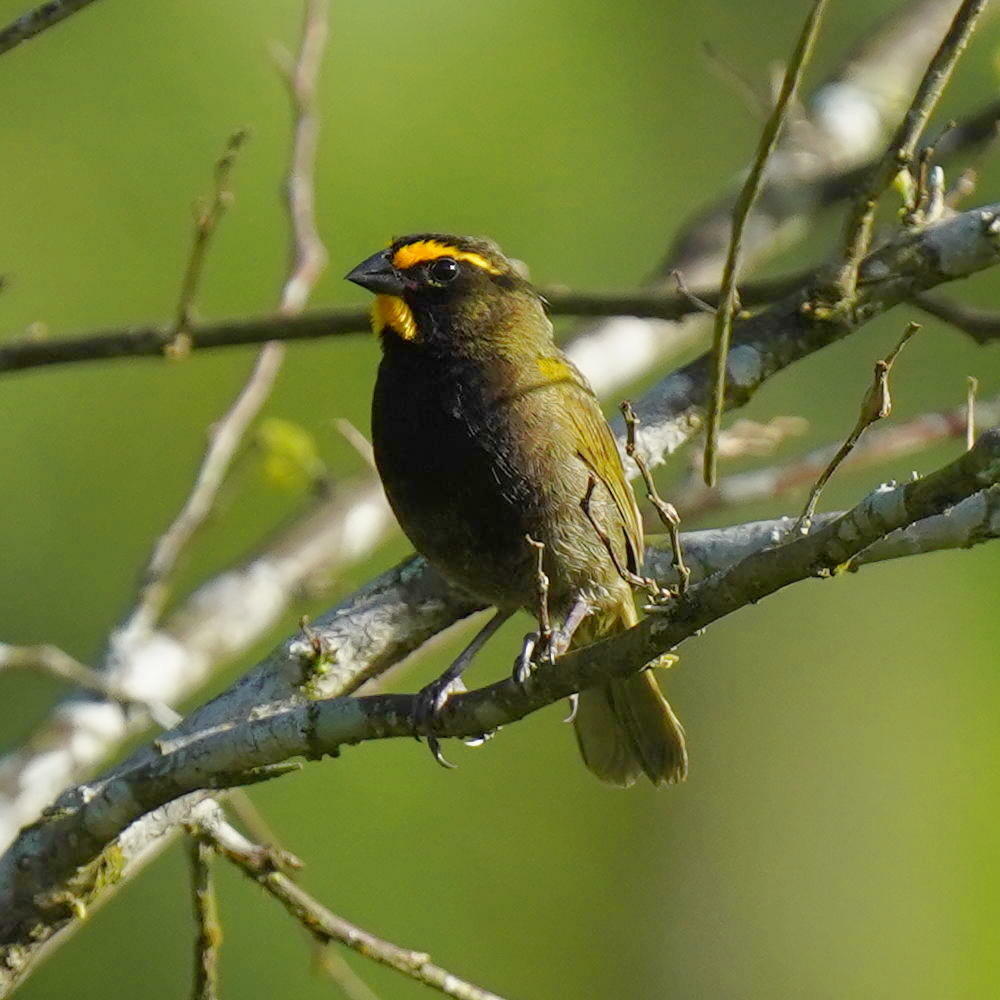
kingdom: Animalia
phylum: Chordata
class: Aves
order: Passeriformes
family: Thraupidae
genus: Tiaris
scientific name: Tiaris olivaceus
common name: Yellow-faced grassquit
